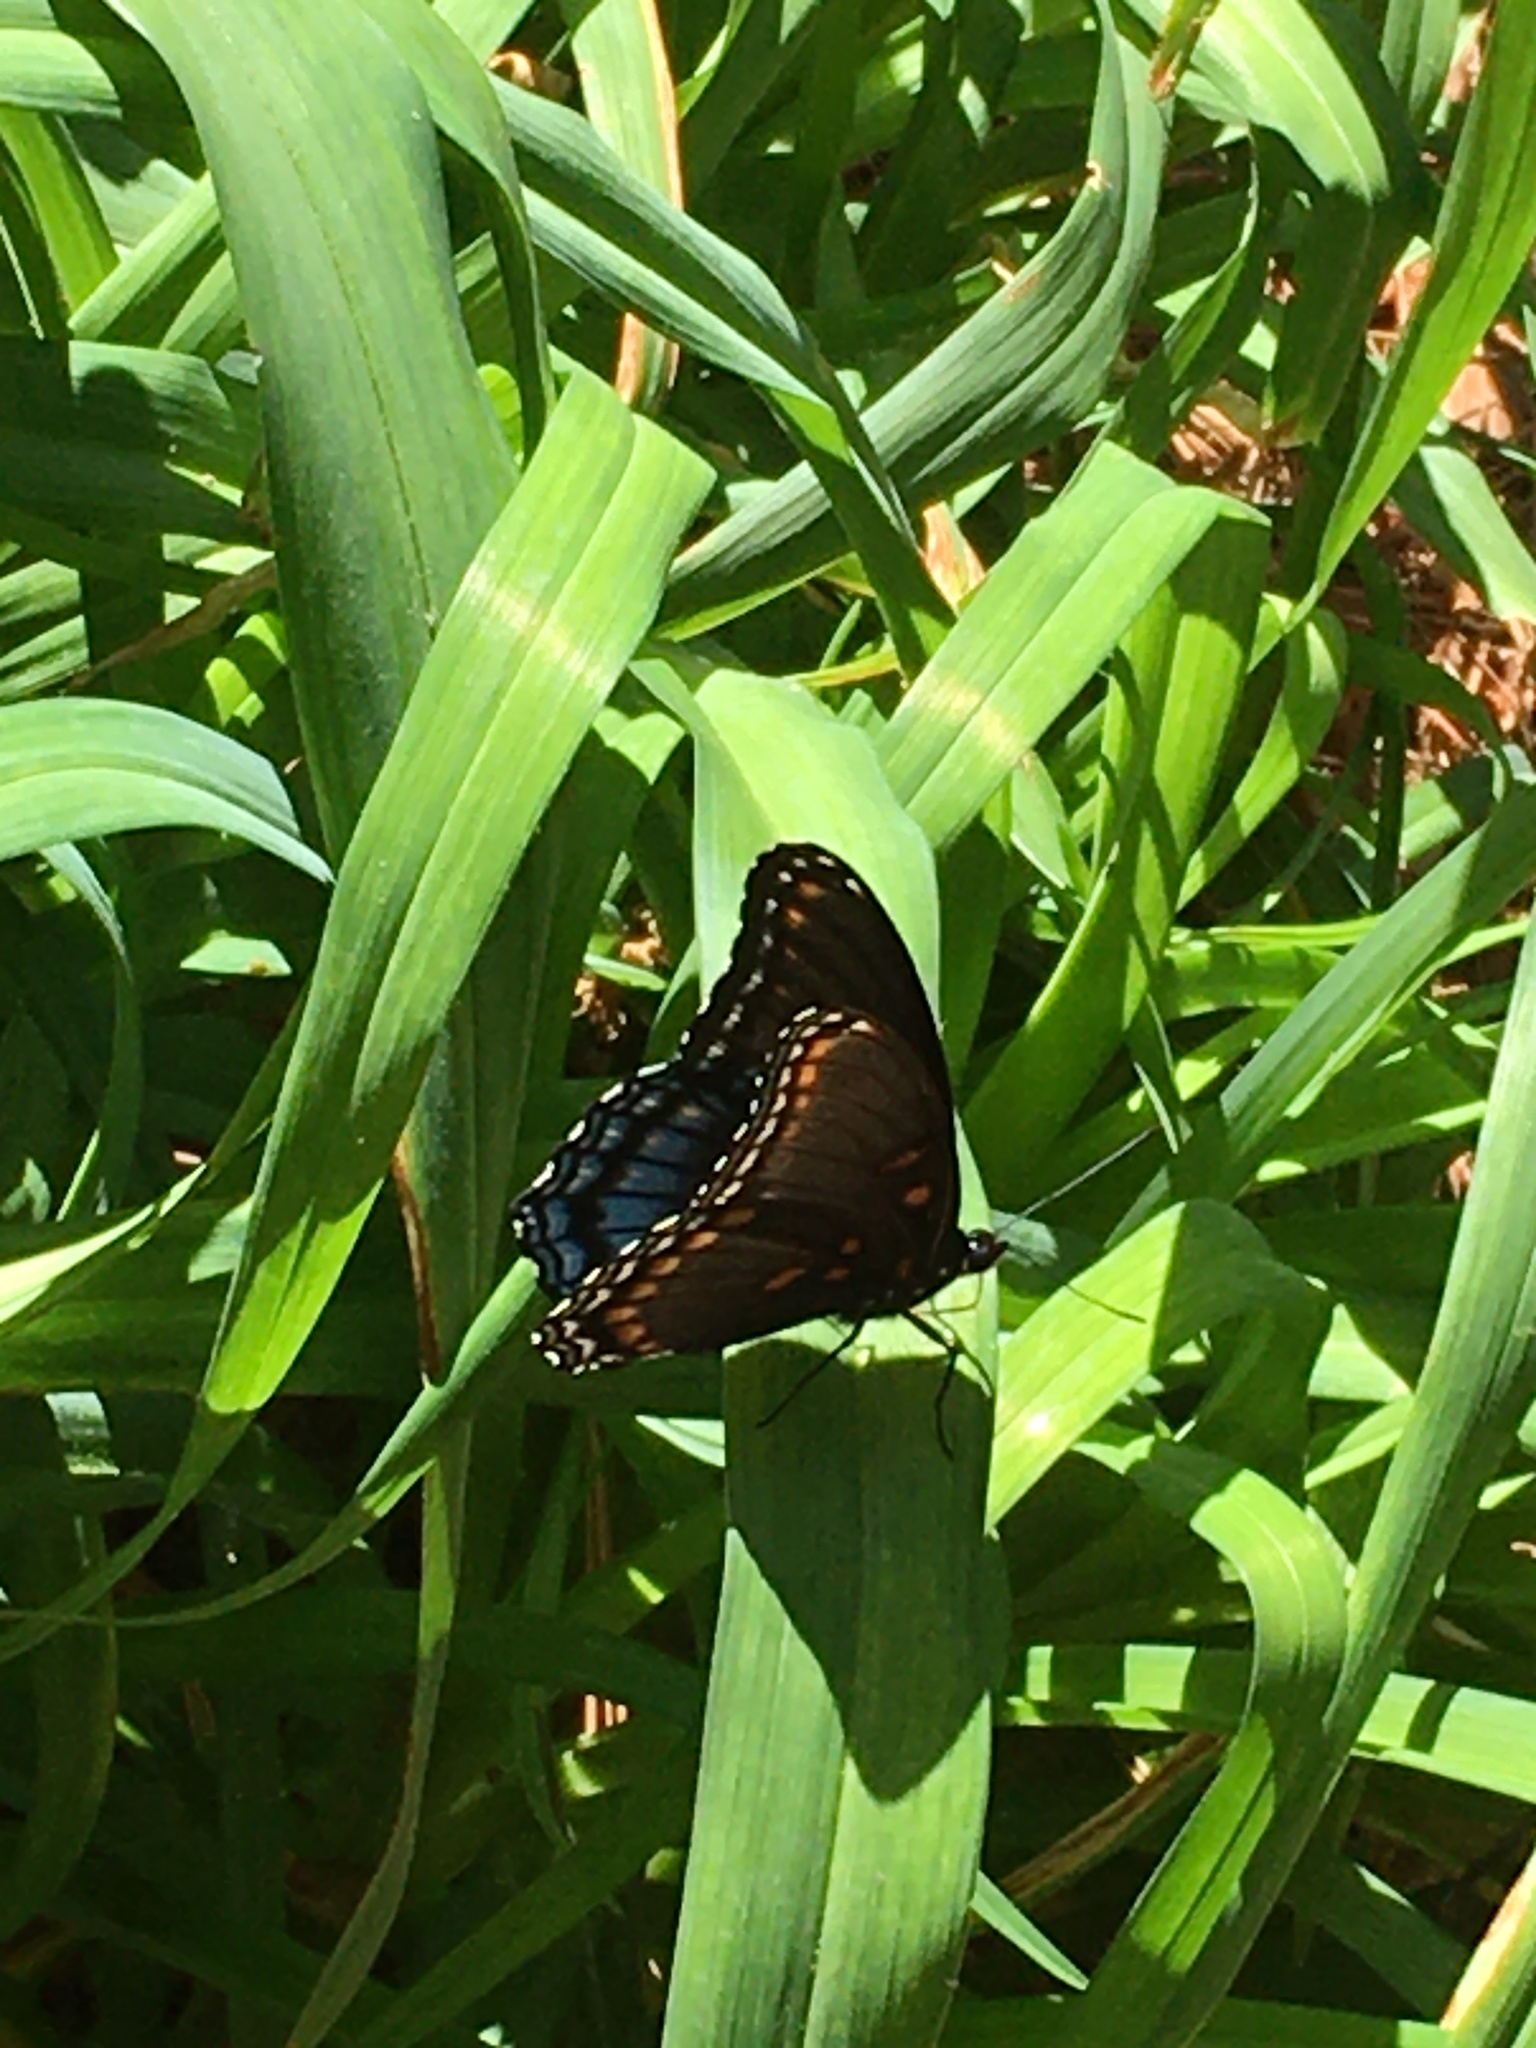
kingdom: Animalia
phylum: Arthropoda
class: Insecta
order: Lepidoptera
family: Nymphalidae
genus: Limenitis
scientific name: Limenitis astyanax
